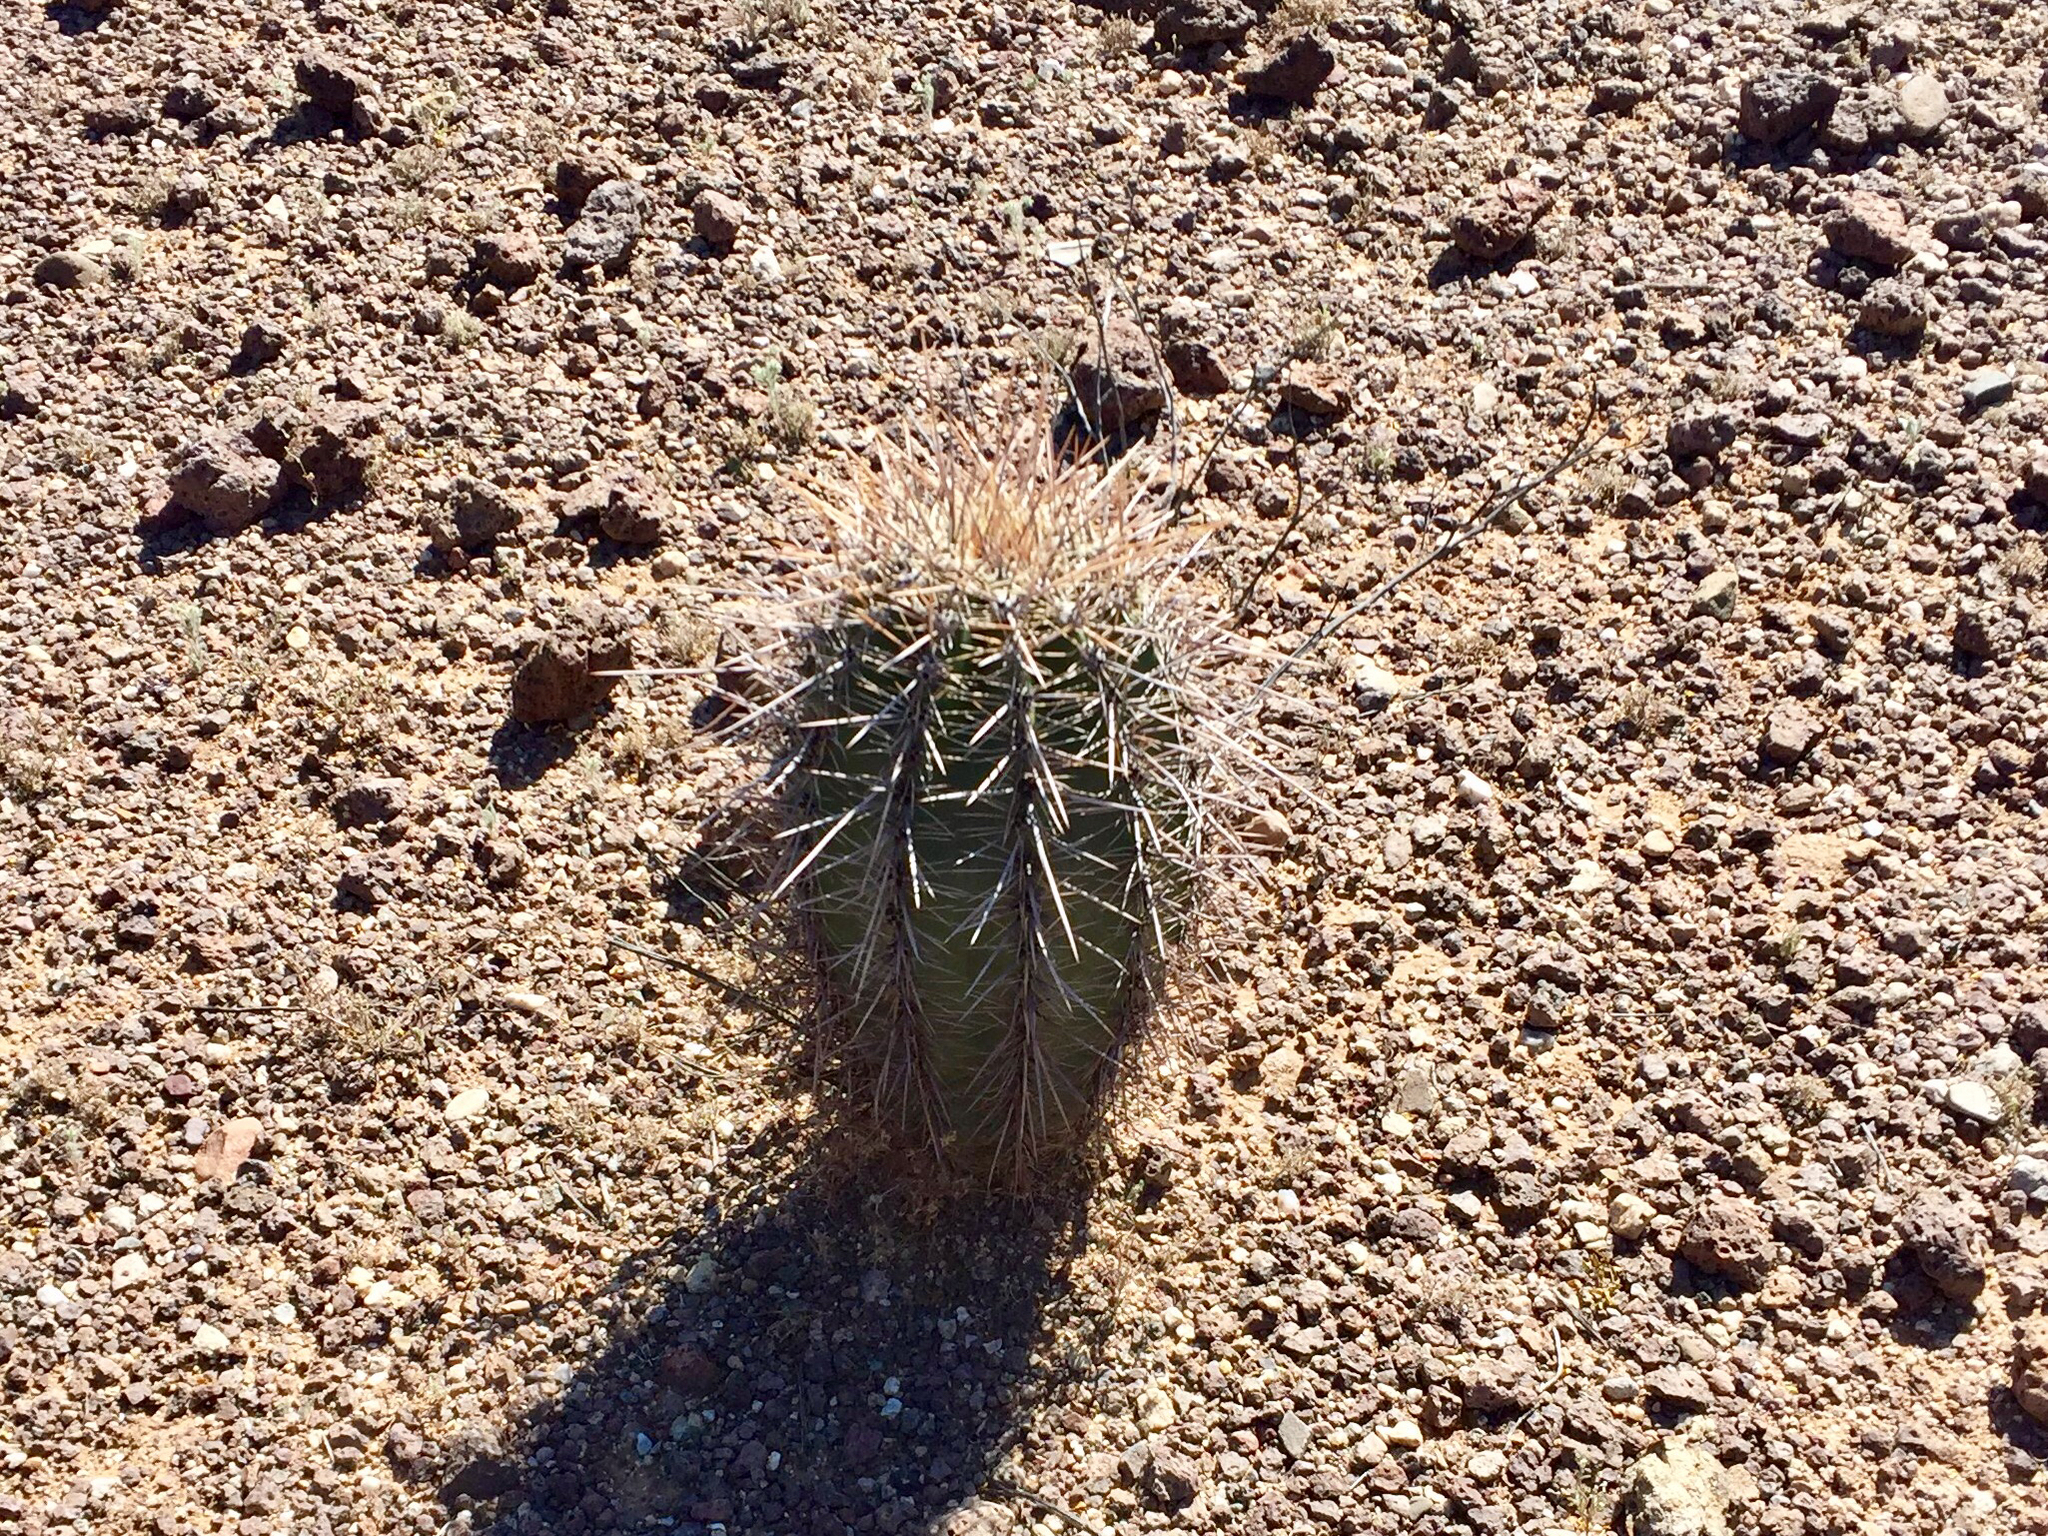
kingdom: Plantae
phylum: Tracheophyta
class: Magnoliopsida
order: Caryophyllales
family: Cactaceae
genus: Carnegiea
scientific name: Carnegiea gigantea
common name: Saguaro
